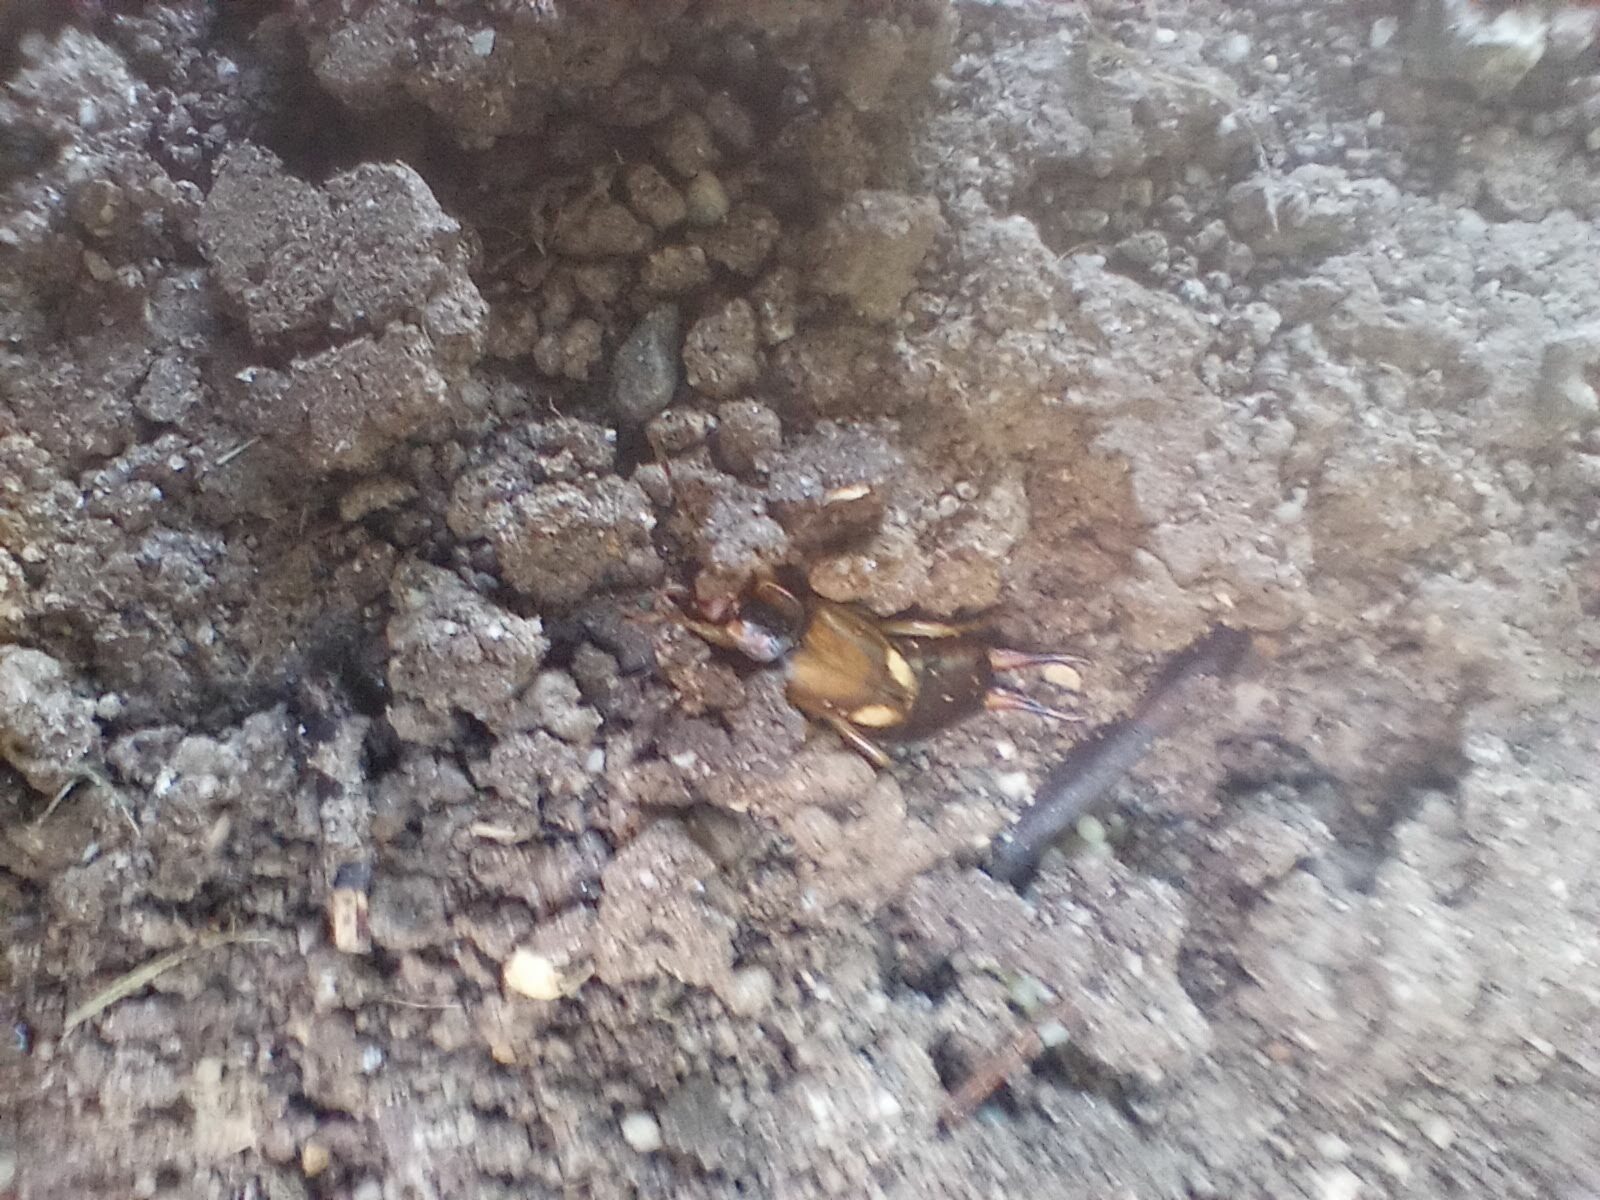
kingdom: Animalia
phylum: Arthropoda
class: Insecta
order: Dermaptera
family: Forficulidae
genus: Forficula
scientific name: Forficula
